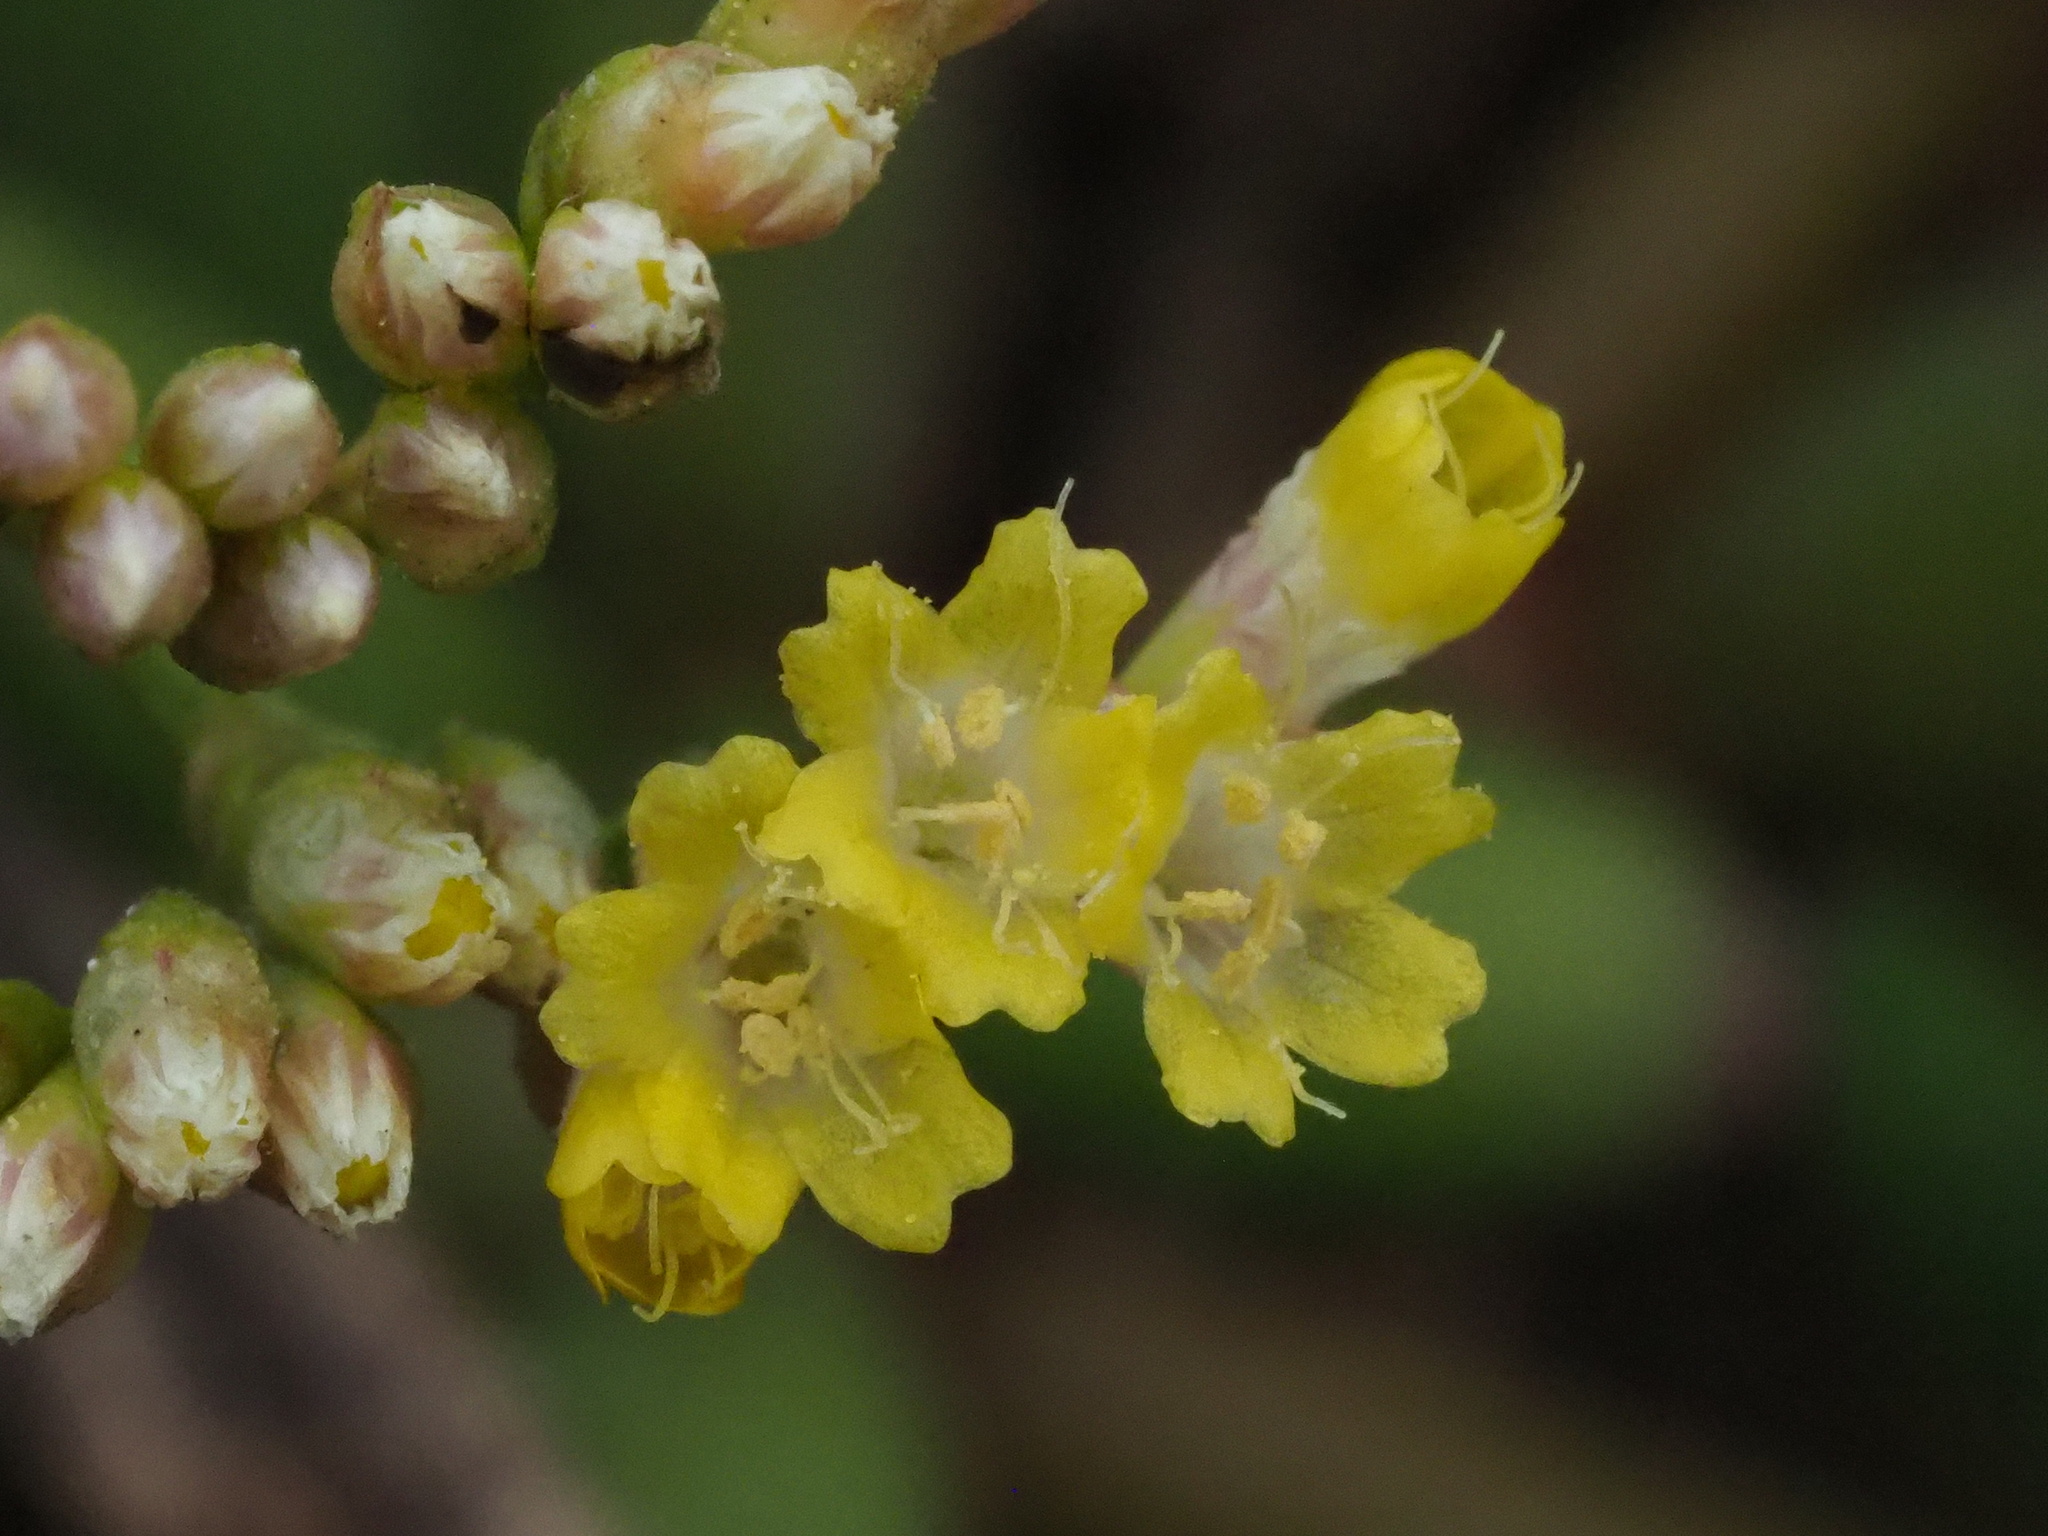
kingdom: Plantae
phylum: Tracheophyta
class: Magnoliopsida
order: Caryophyllales
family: Plumbaginaceae
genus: Limonium
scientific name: Limonium sinense
